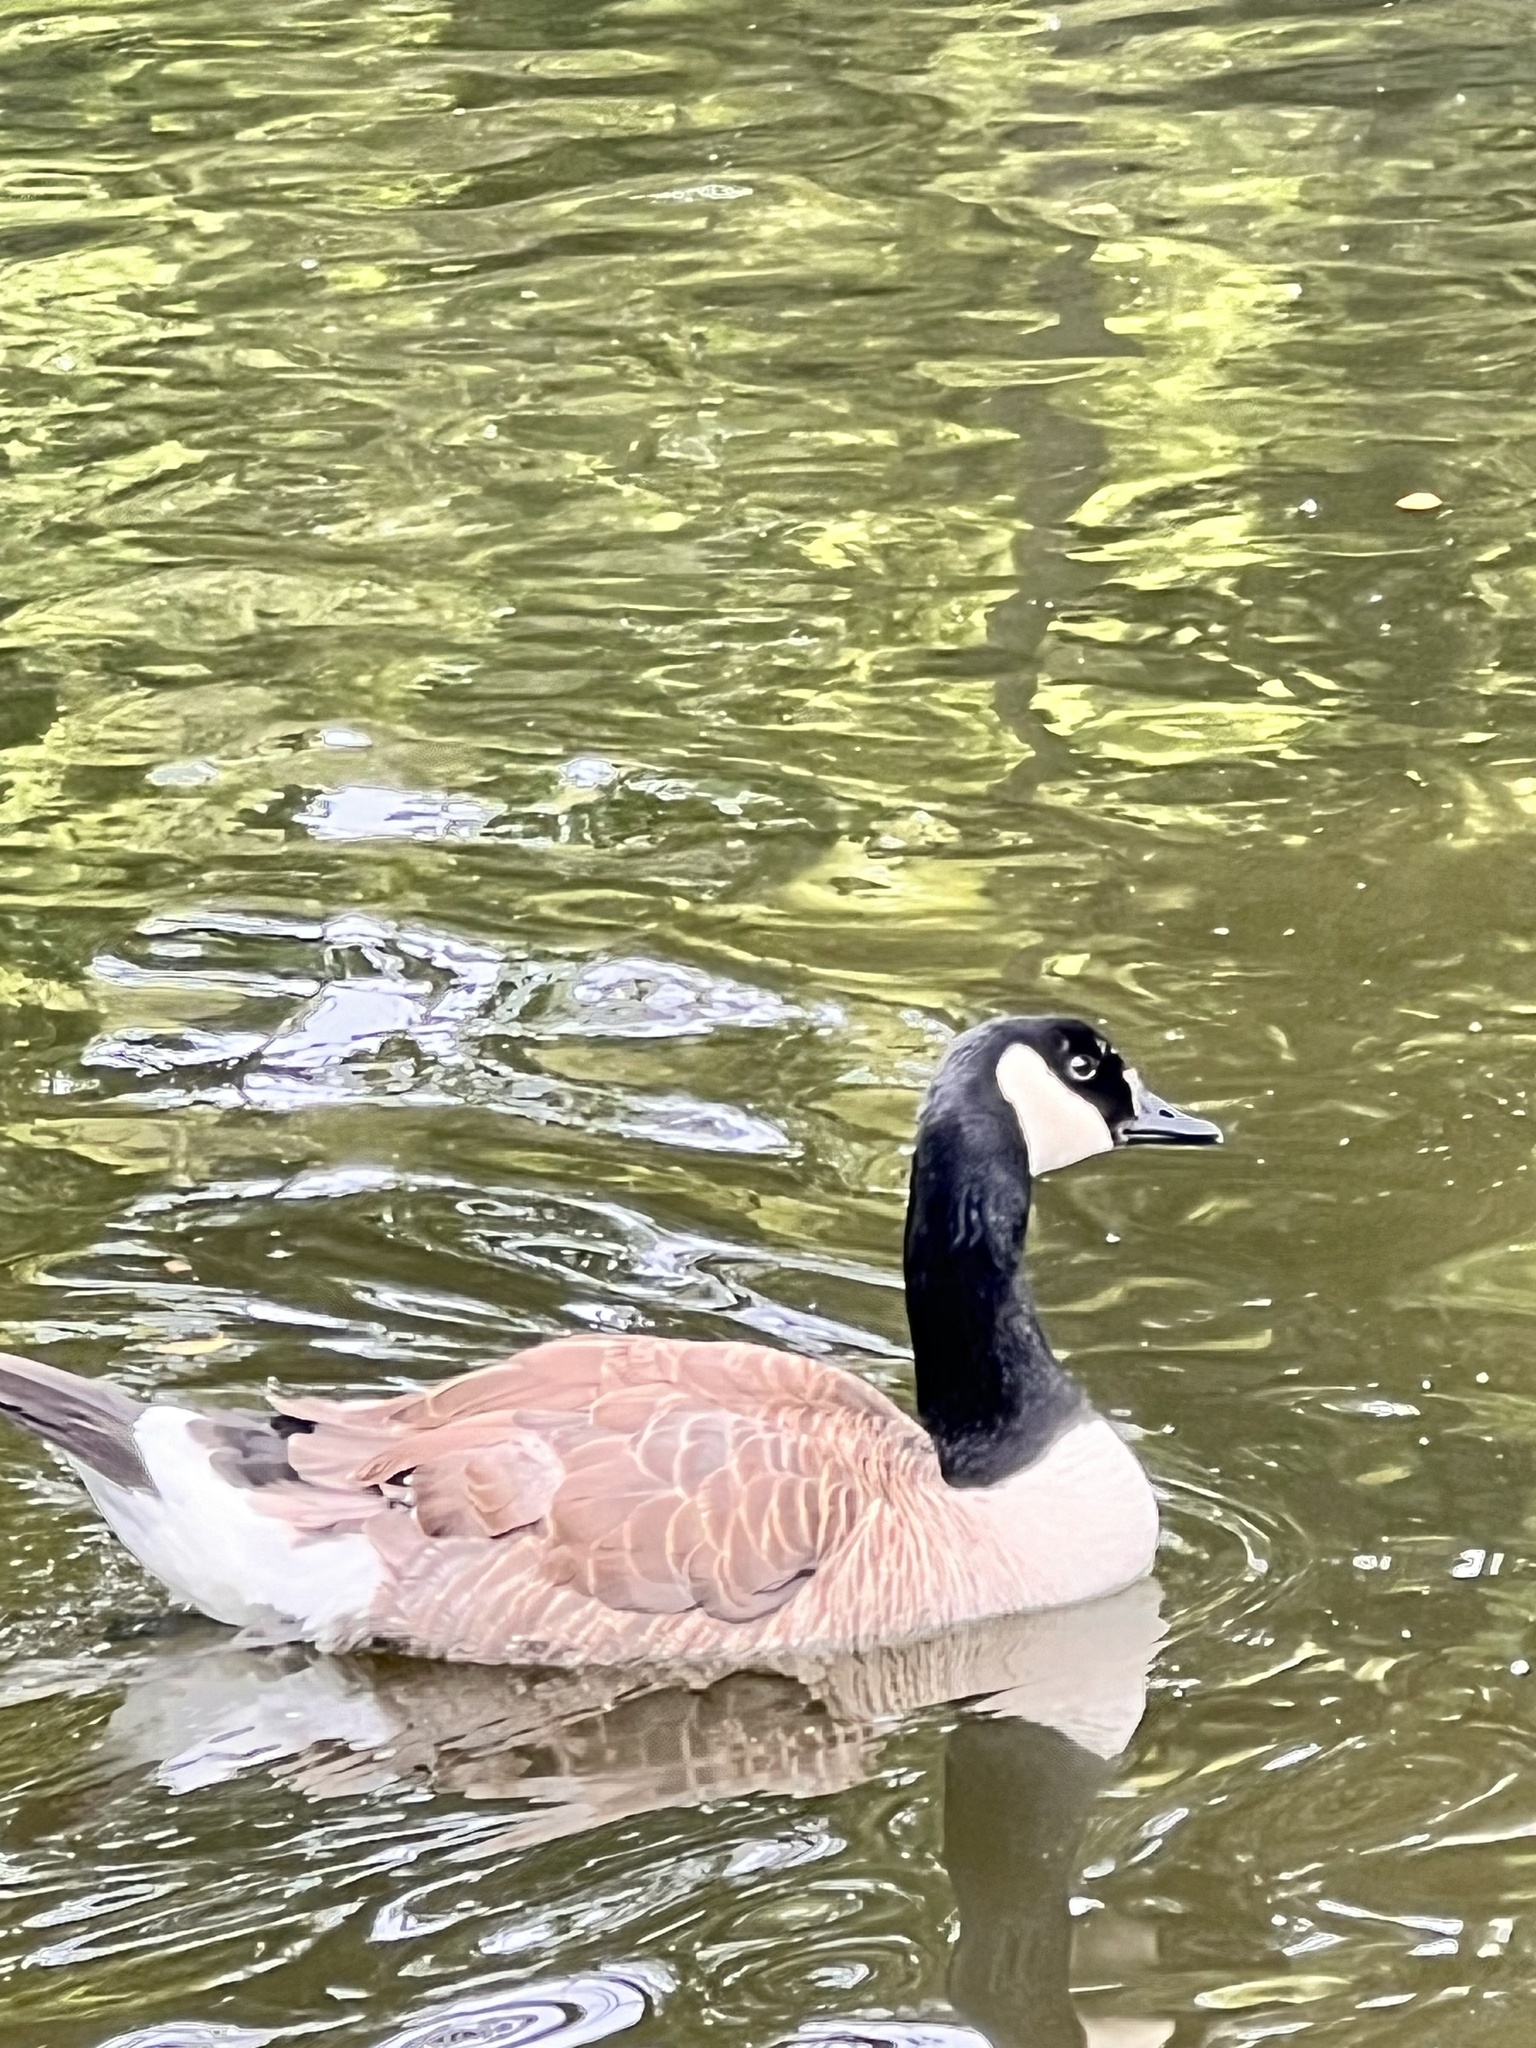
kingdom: Animalia
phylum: Chordata
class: Aves
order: Anseriformes
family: Anatidae
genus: Branta
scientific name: Branta canadensis
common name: Canada goose
